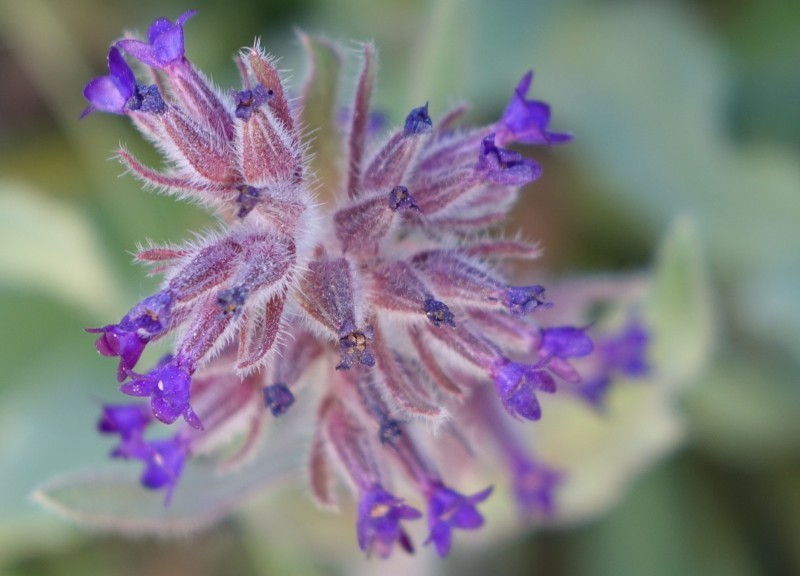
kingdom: Plantae
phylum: Tracheophyta
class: Magnoliopsida
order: Boraginales
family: Boraginaceae
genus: Anchusa
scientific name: Anchusa undulata
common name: Undulate alkanet
